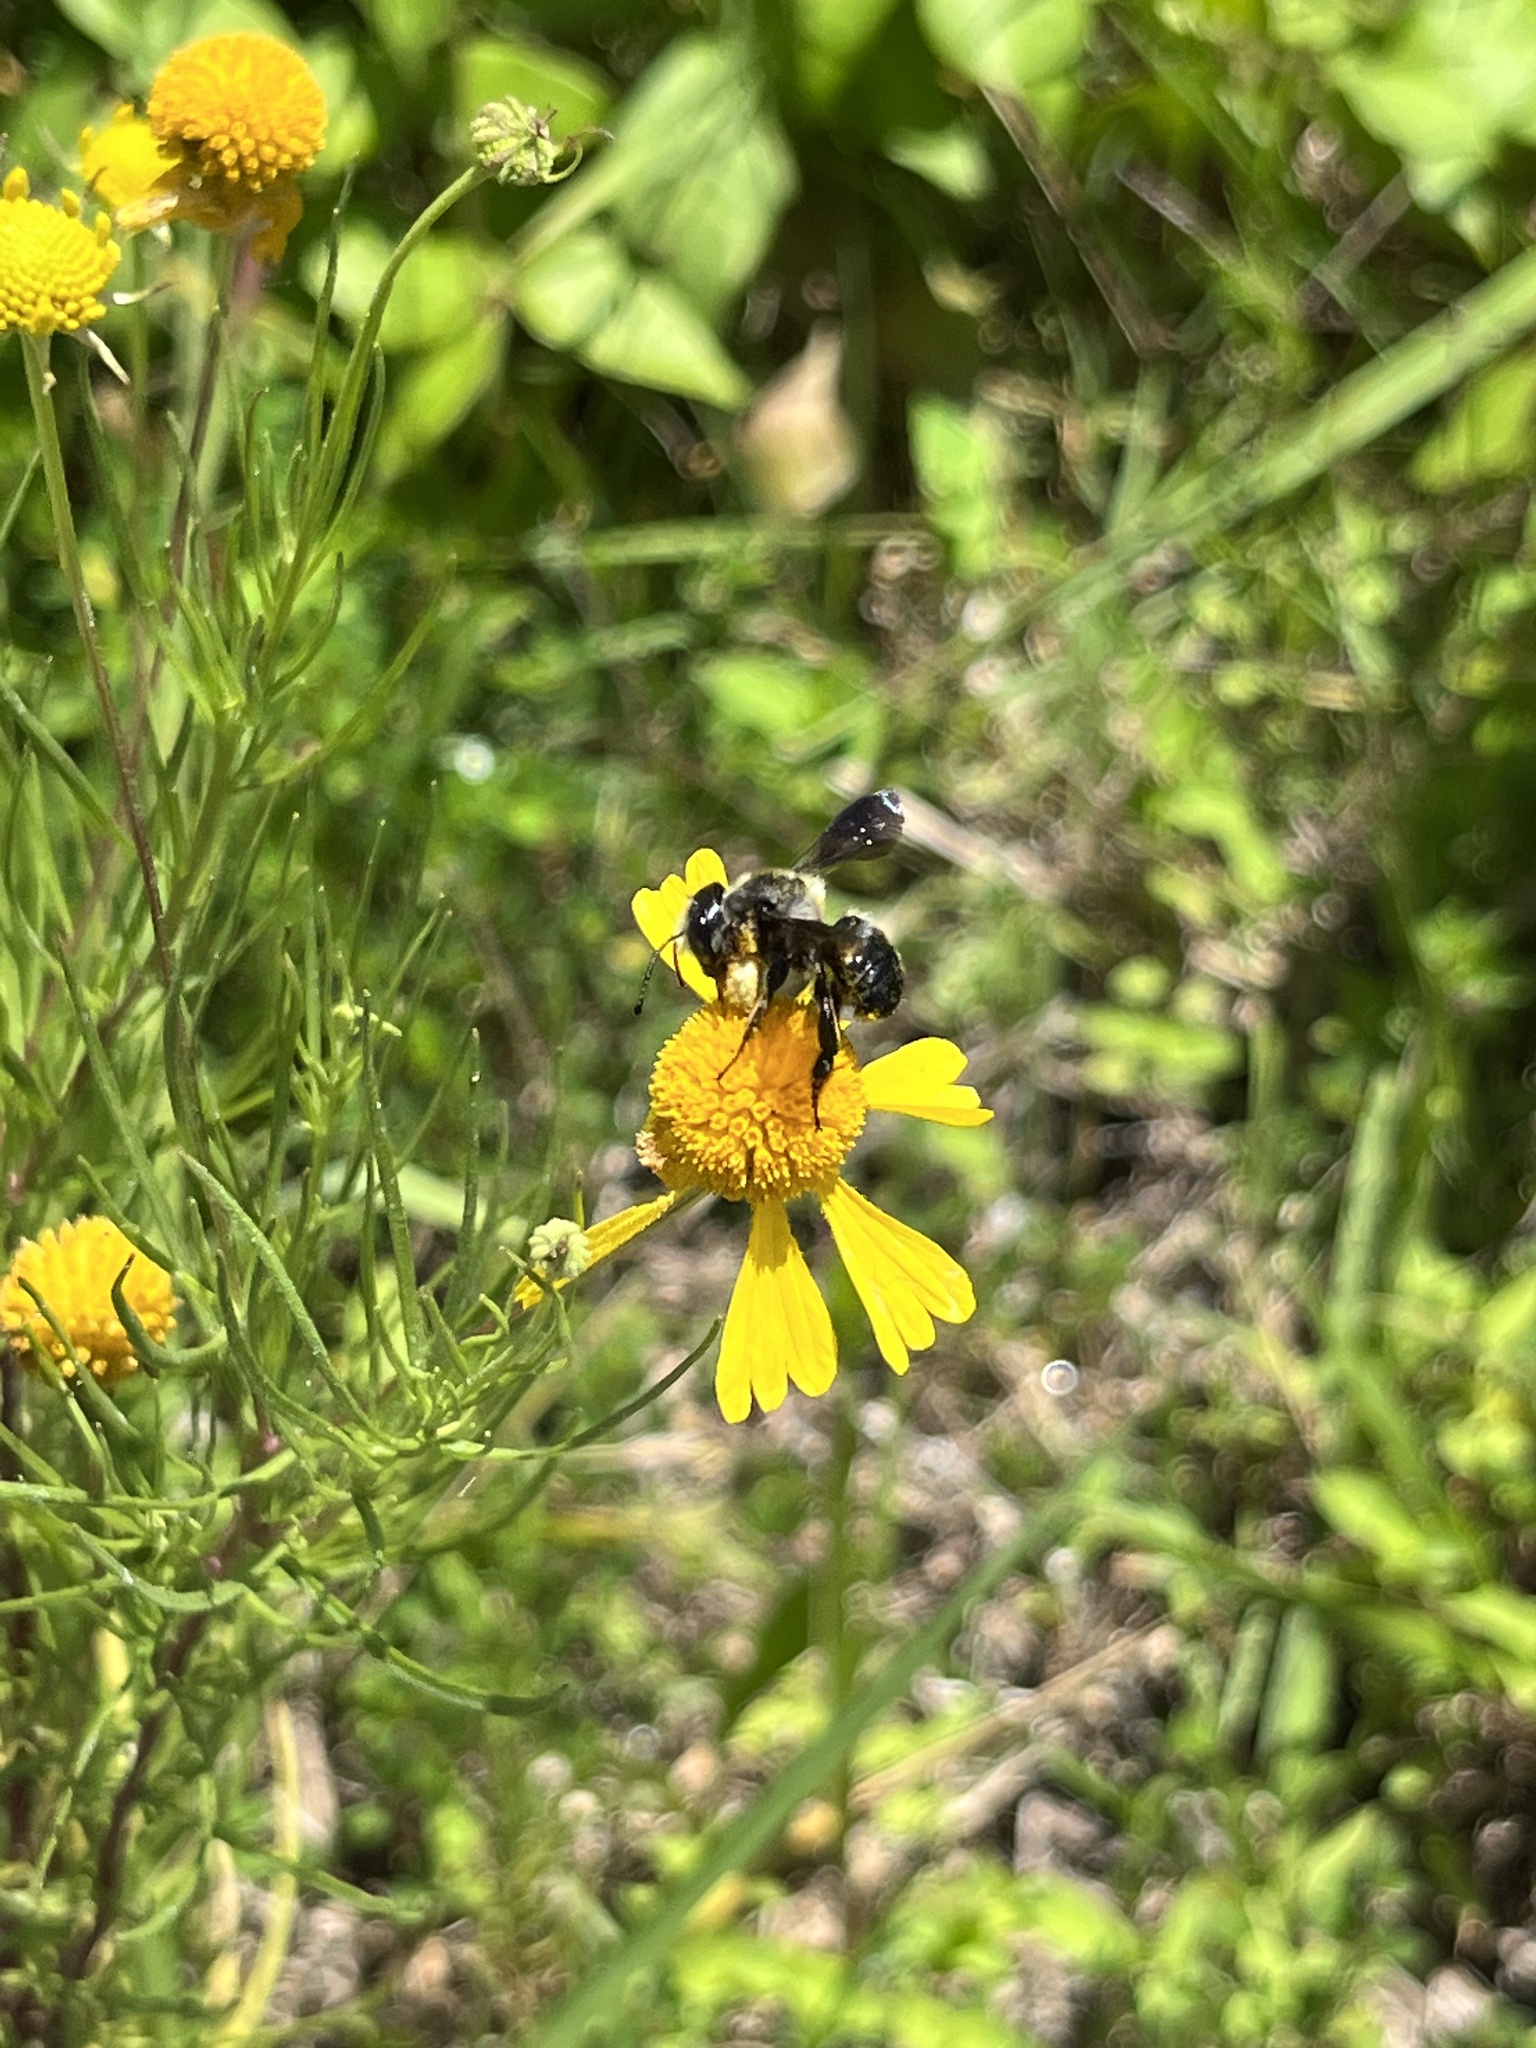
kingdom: Animalia
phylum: Arthropoda
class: Insecta
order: Hymenoptera
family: Megachilidae
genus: Megachile
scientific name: Megachile xylocopoides
